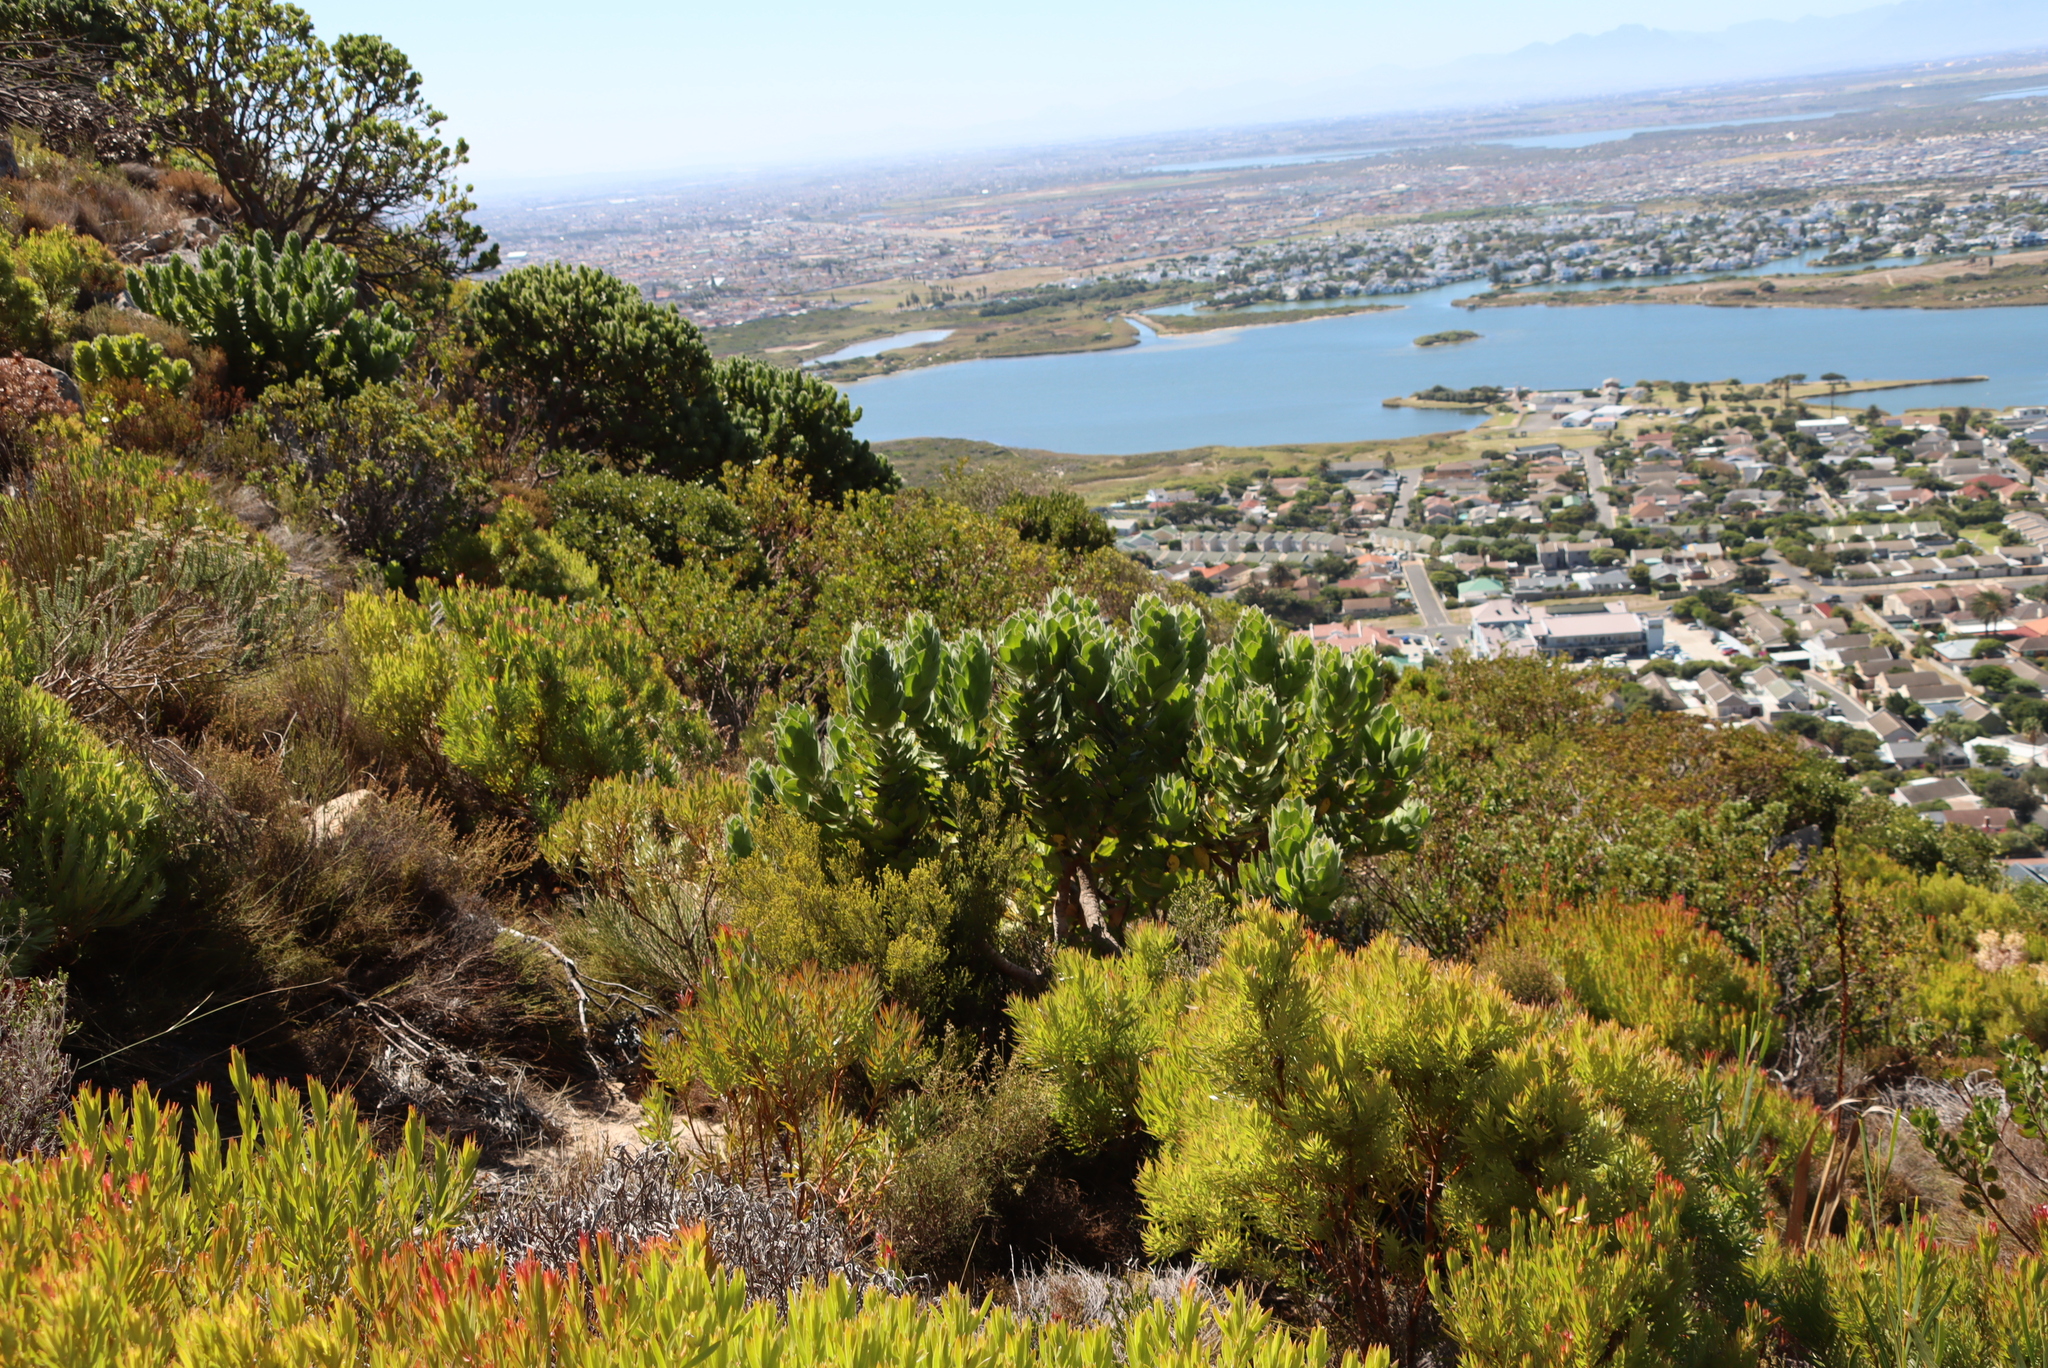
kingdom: Plantae
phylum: Tracheophyta
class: Magnoliopsida
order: Proteales
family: Proteaceae
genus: Leucospermum
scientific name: Leucospermum conocarpodendron
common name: Tree pincushion
